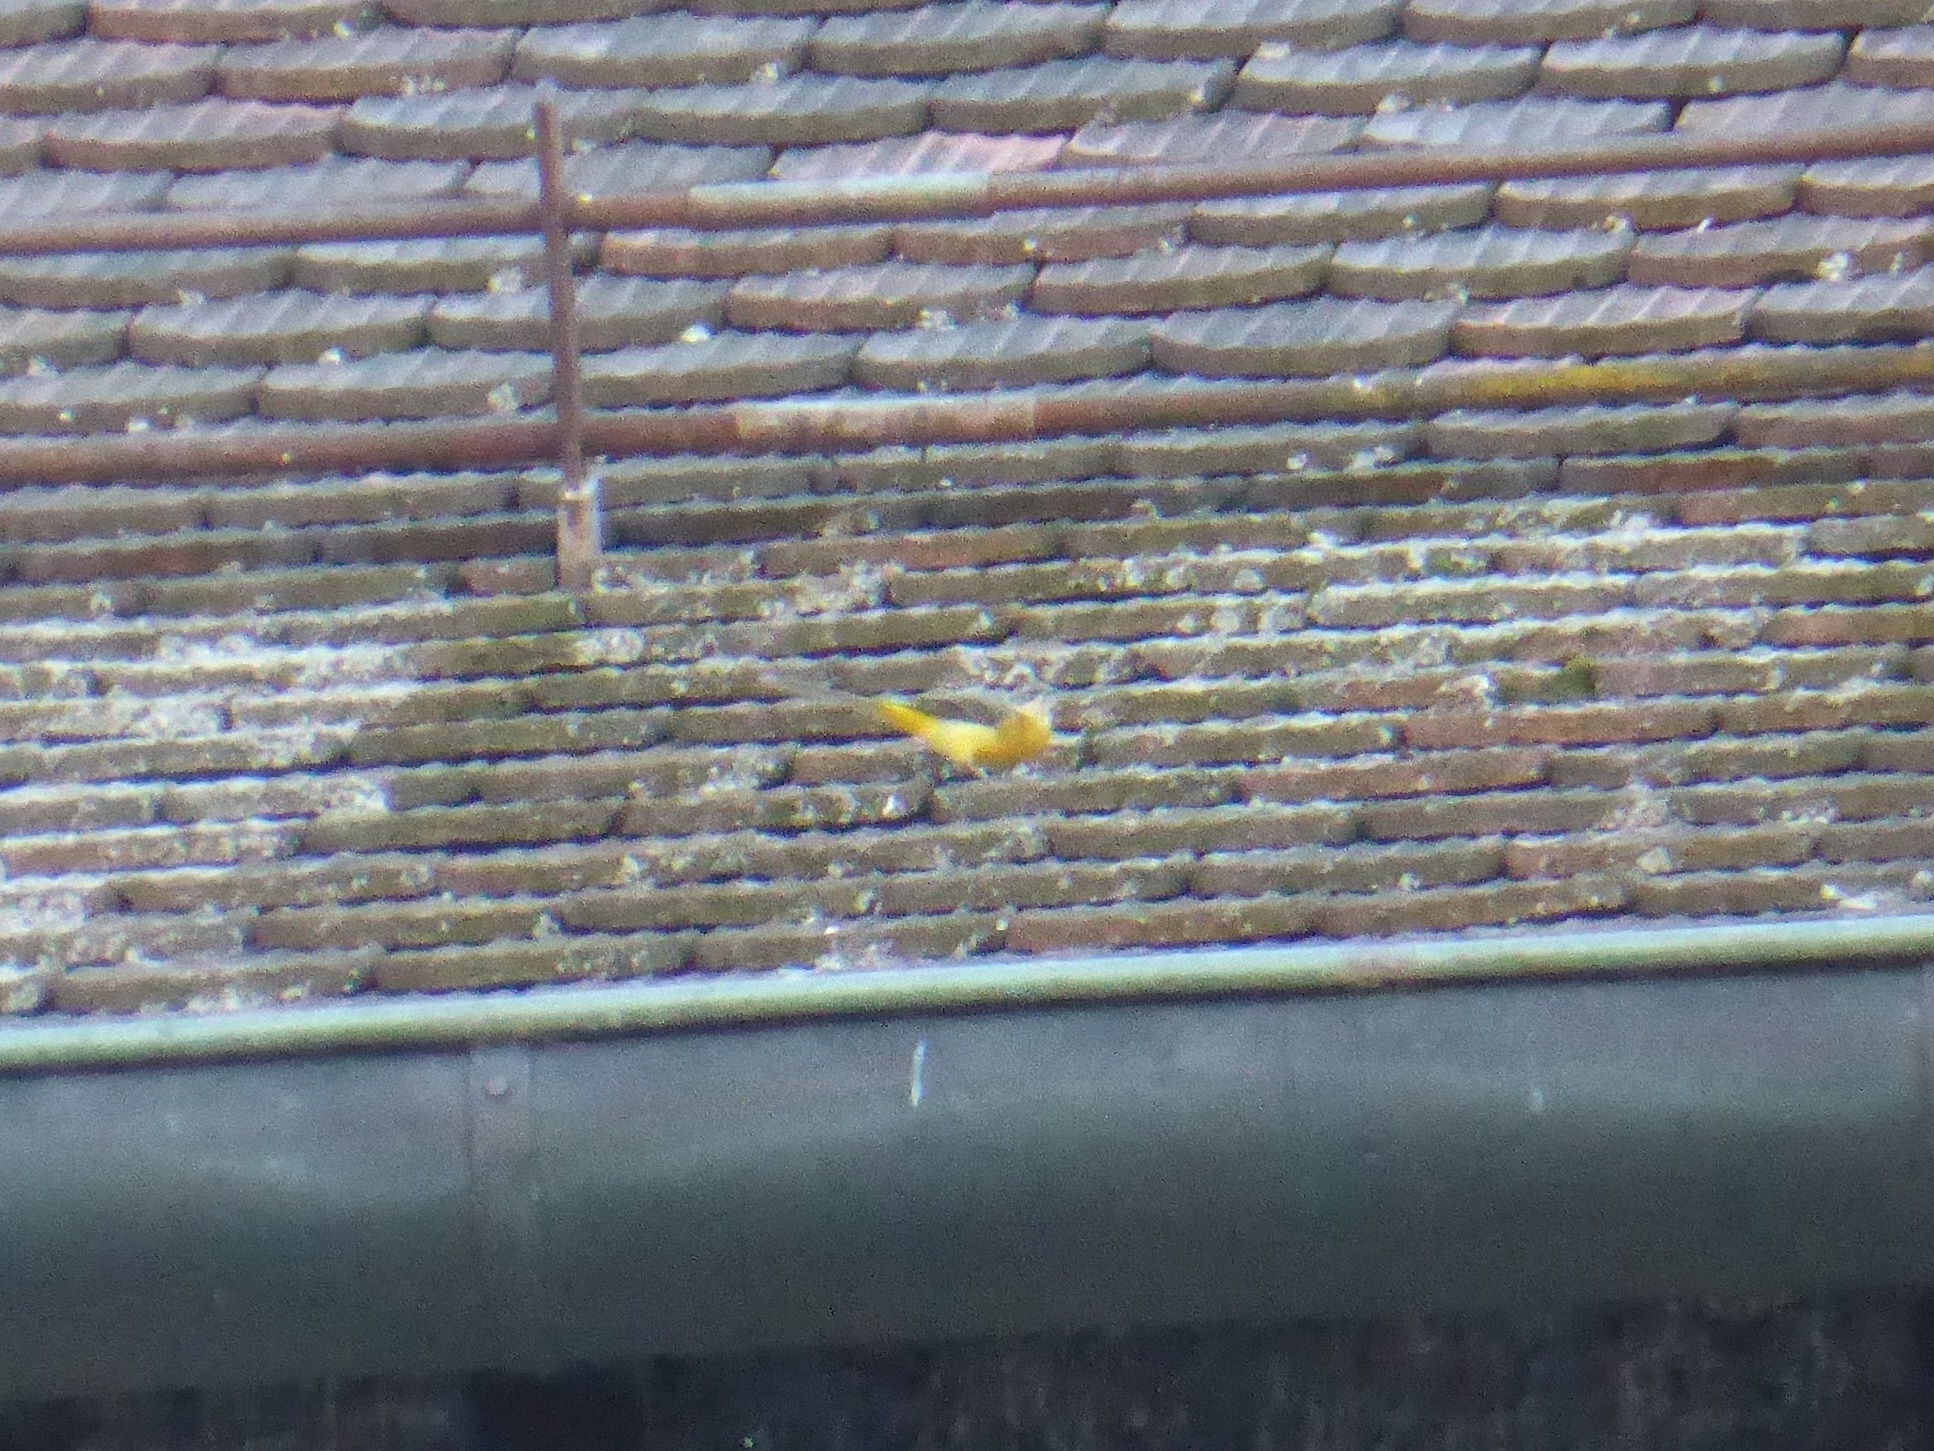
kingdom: Animalia
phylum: Chordata
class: Aves
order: Passeriformes
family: Motacillidae
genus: Motacilla
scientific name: Motacilla cinerea
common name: Grey wagtail
